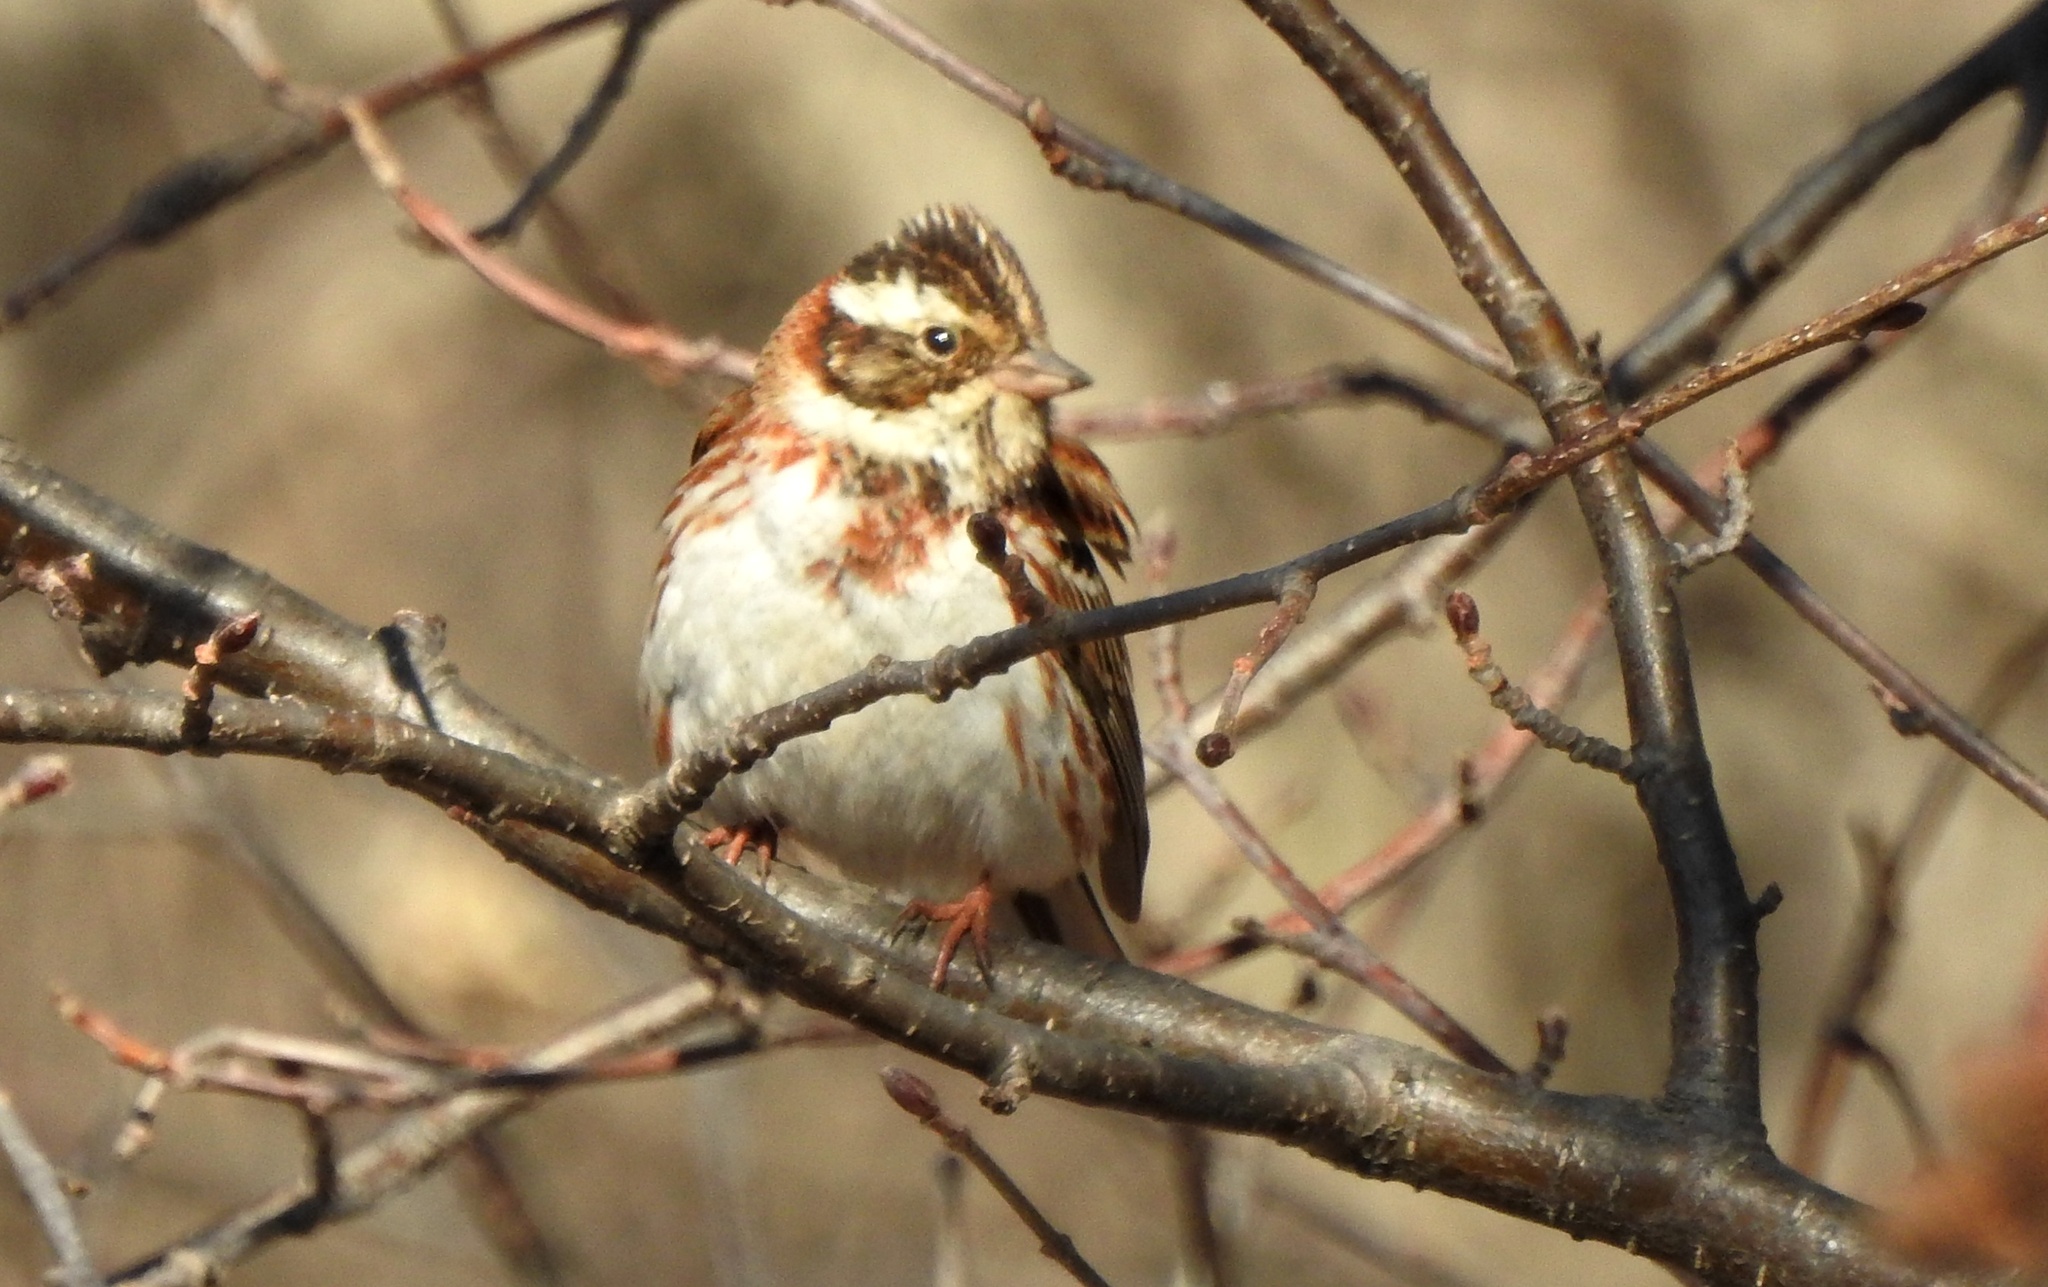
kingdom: Animalia
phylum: Chordata
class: Aves
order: Passeriformes
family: Emberizidae
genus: Emberiza
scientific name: Emberiza rustica
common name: Rustic bunting
